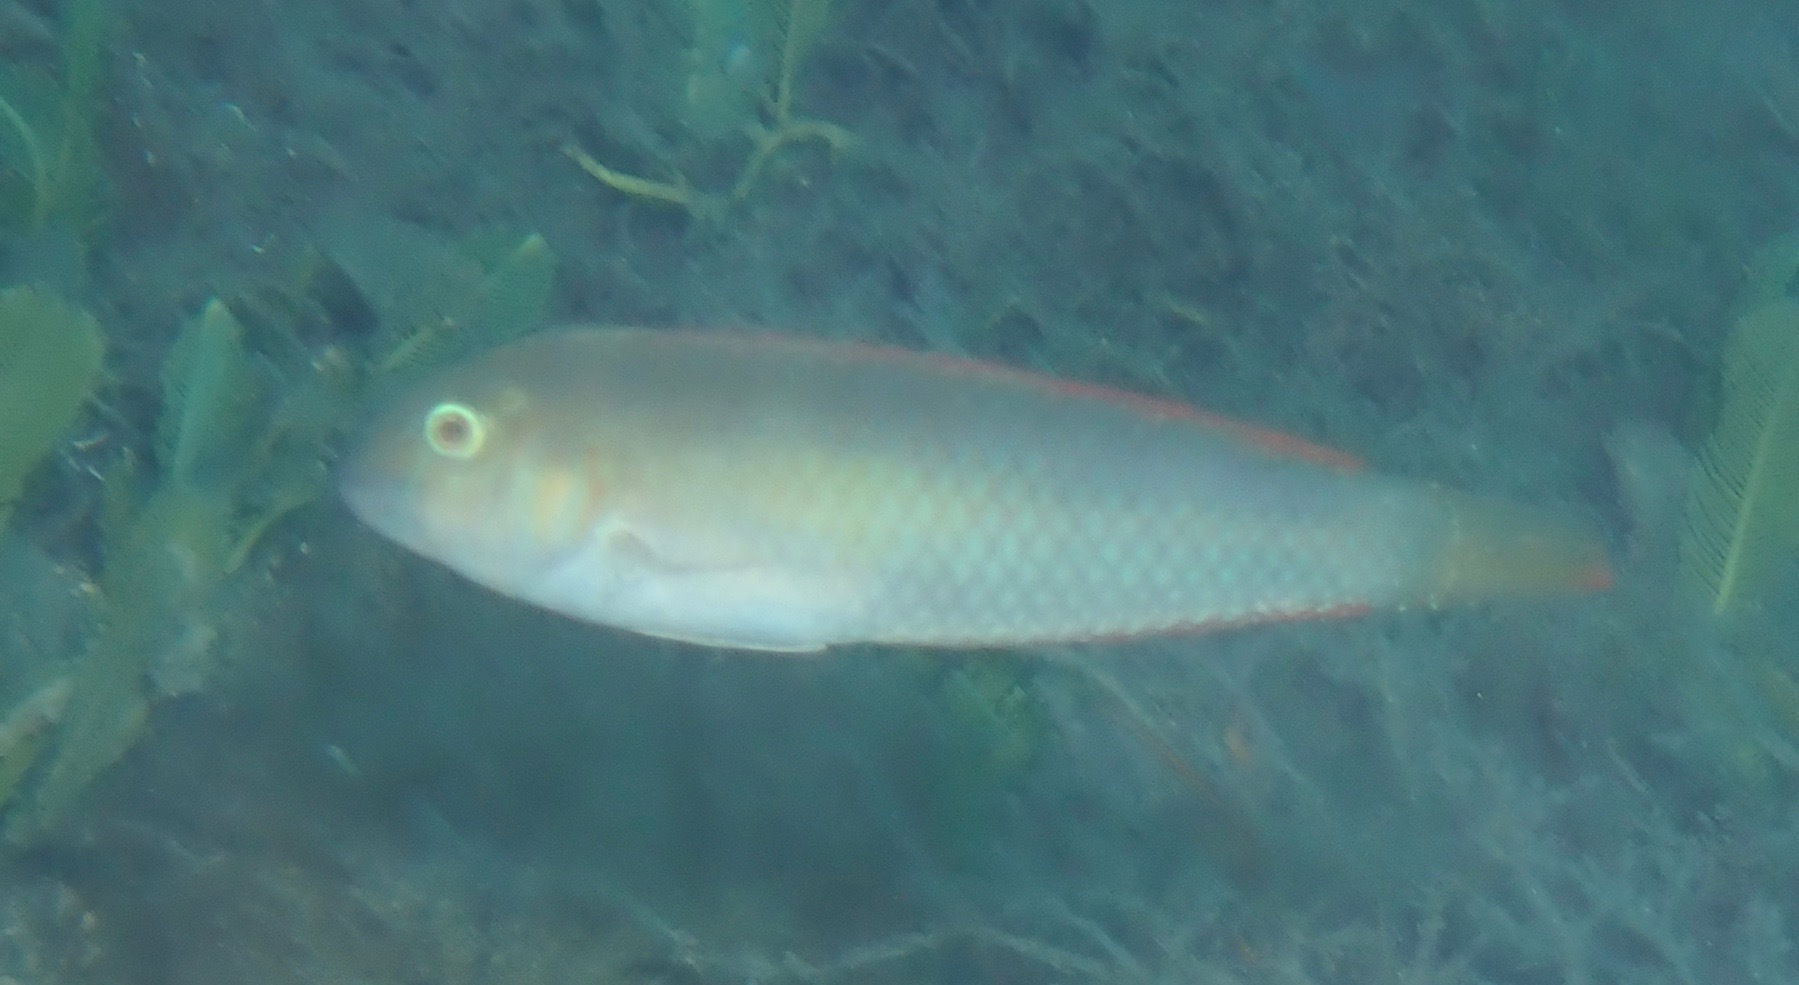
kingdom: Animalia
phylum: Chordata
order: Perciformes
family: Labridae
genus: Xyrichtys
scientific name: Xyrichtys splendens
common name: Green razorfish
